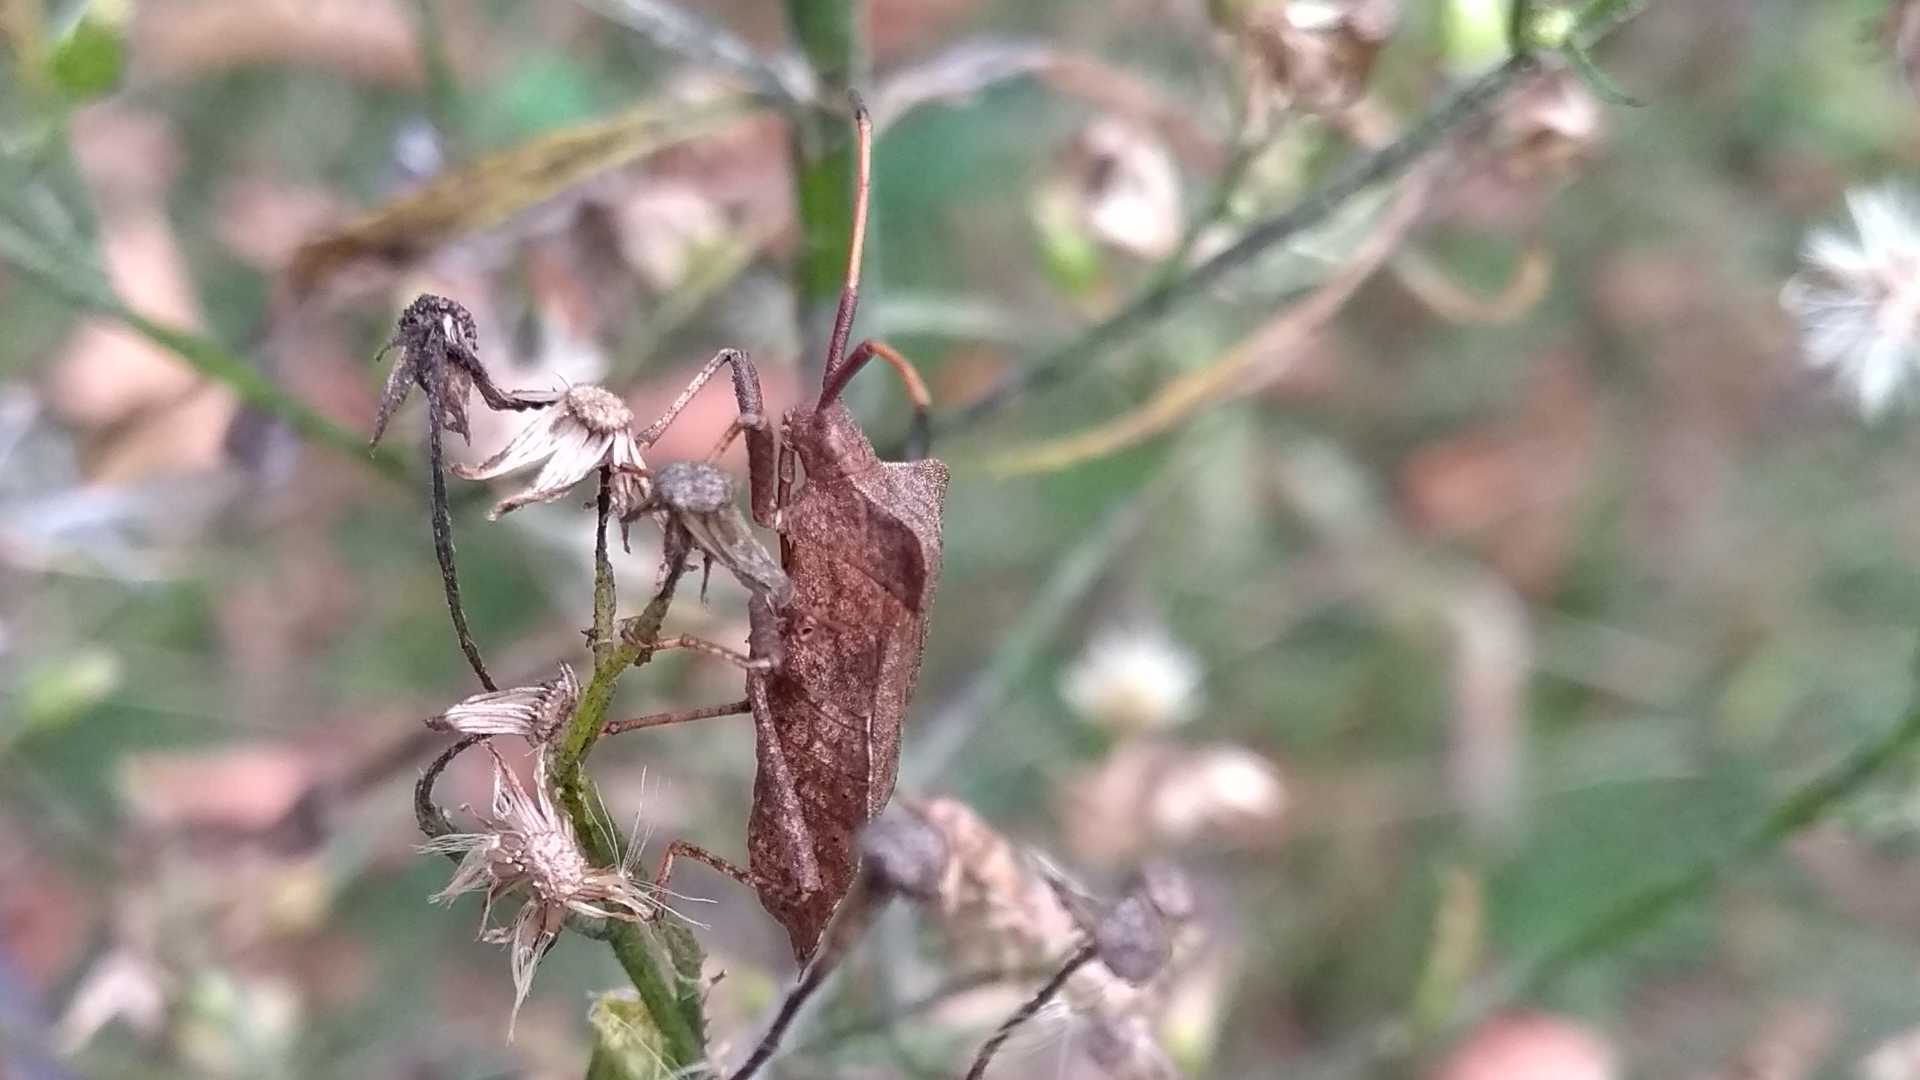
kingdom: Animalia
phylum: Arthropoda
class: Insecta
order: Hemiptera
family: Coreidae
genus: Coreus
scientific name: Coreus marginatus
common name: Dock bug
